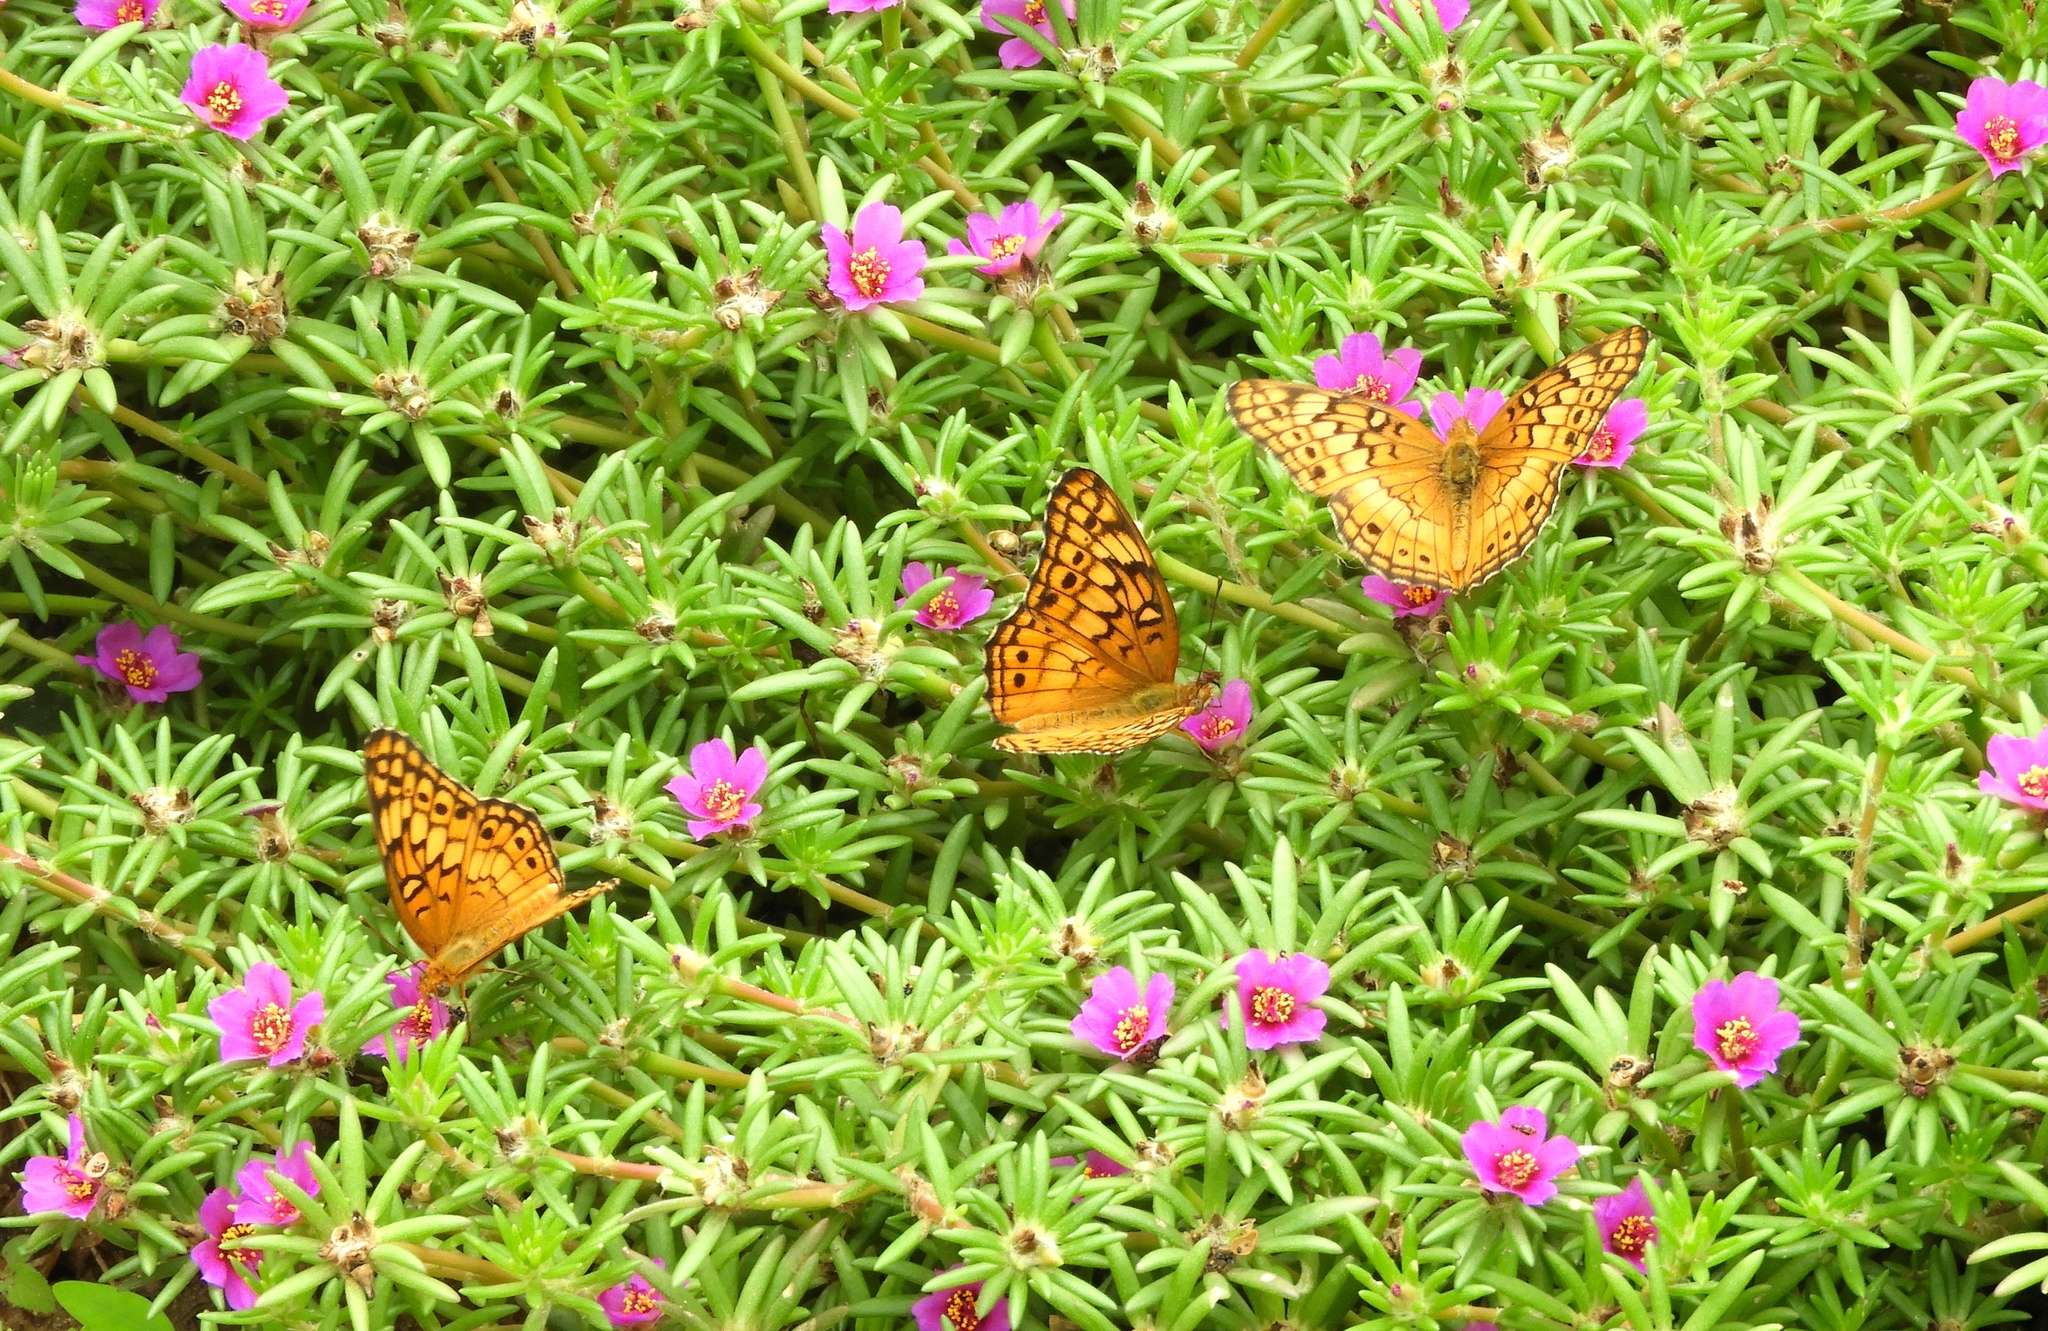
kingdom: Animalia
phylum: Arthropoda
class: Insecta
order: Lepidoptera
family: Nymphalidae
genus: Euptoieta
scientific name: Euptoieta claudia
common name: Variegated fritillary
